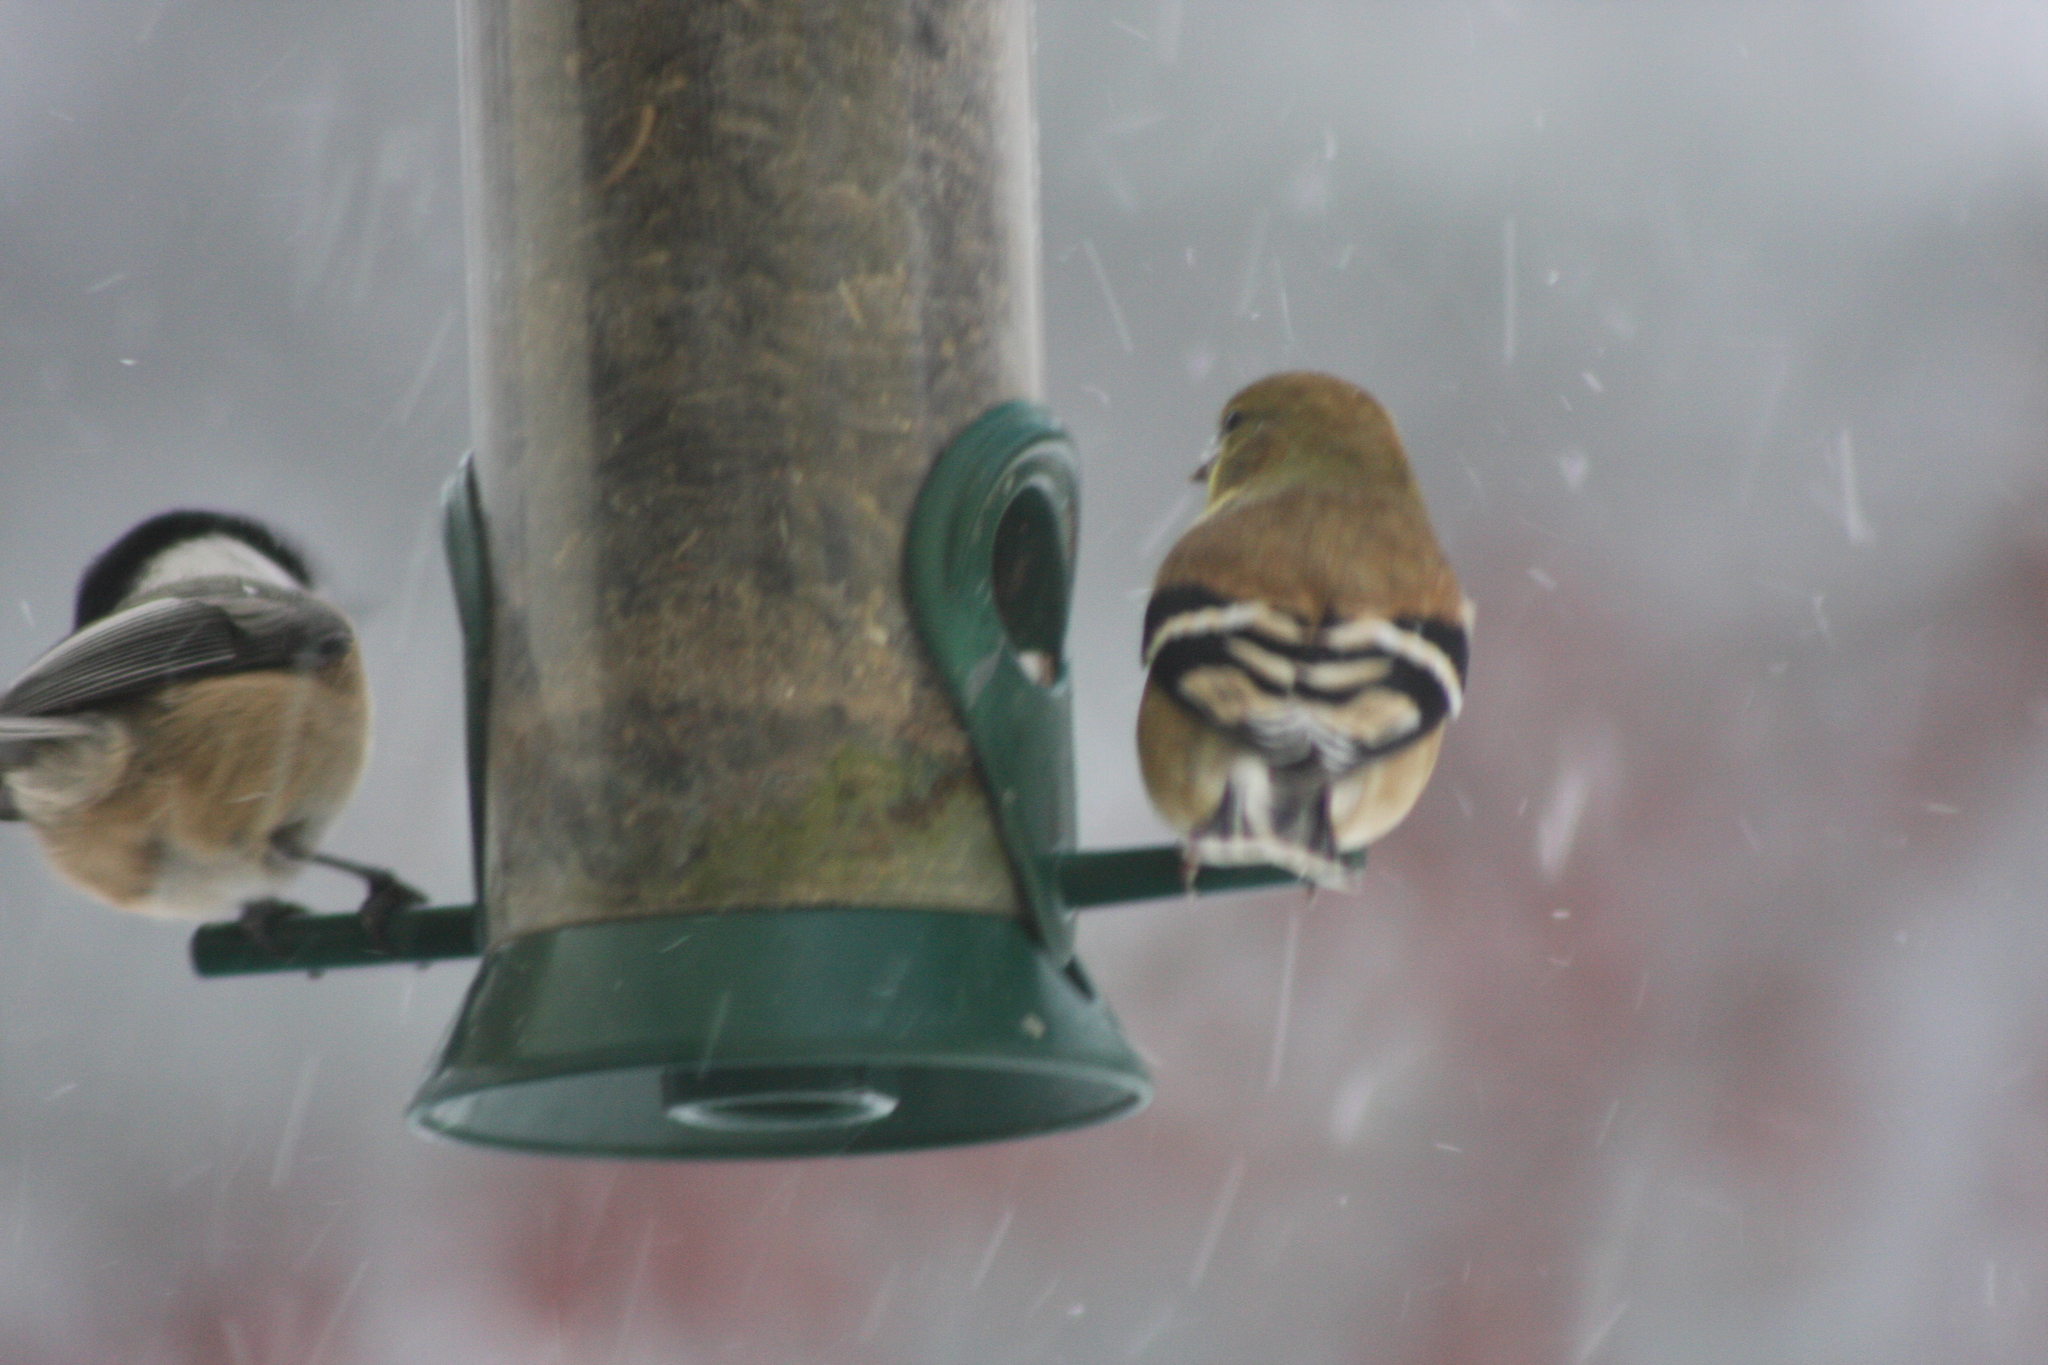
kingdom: Animalia
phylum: Chordata
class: Aves
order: Passeriformes
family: Fringillidae
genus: Spinus
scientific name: Spinus tristis
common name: American goldfinch
